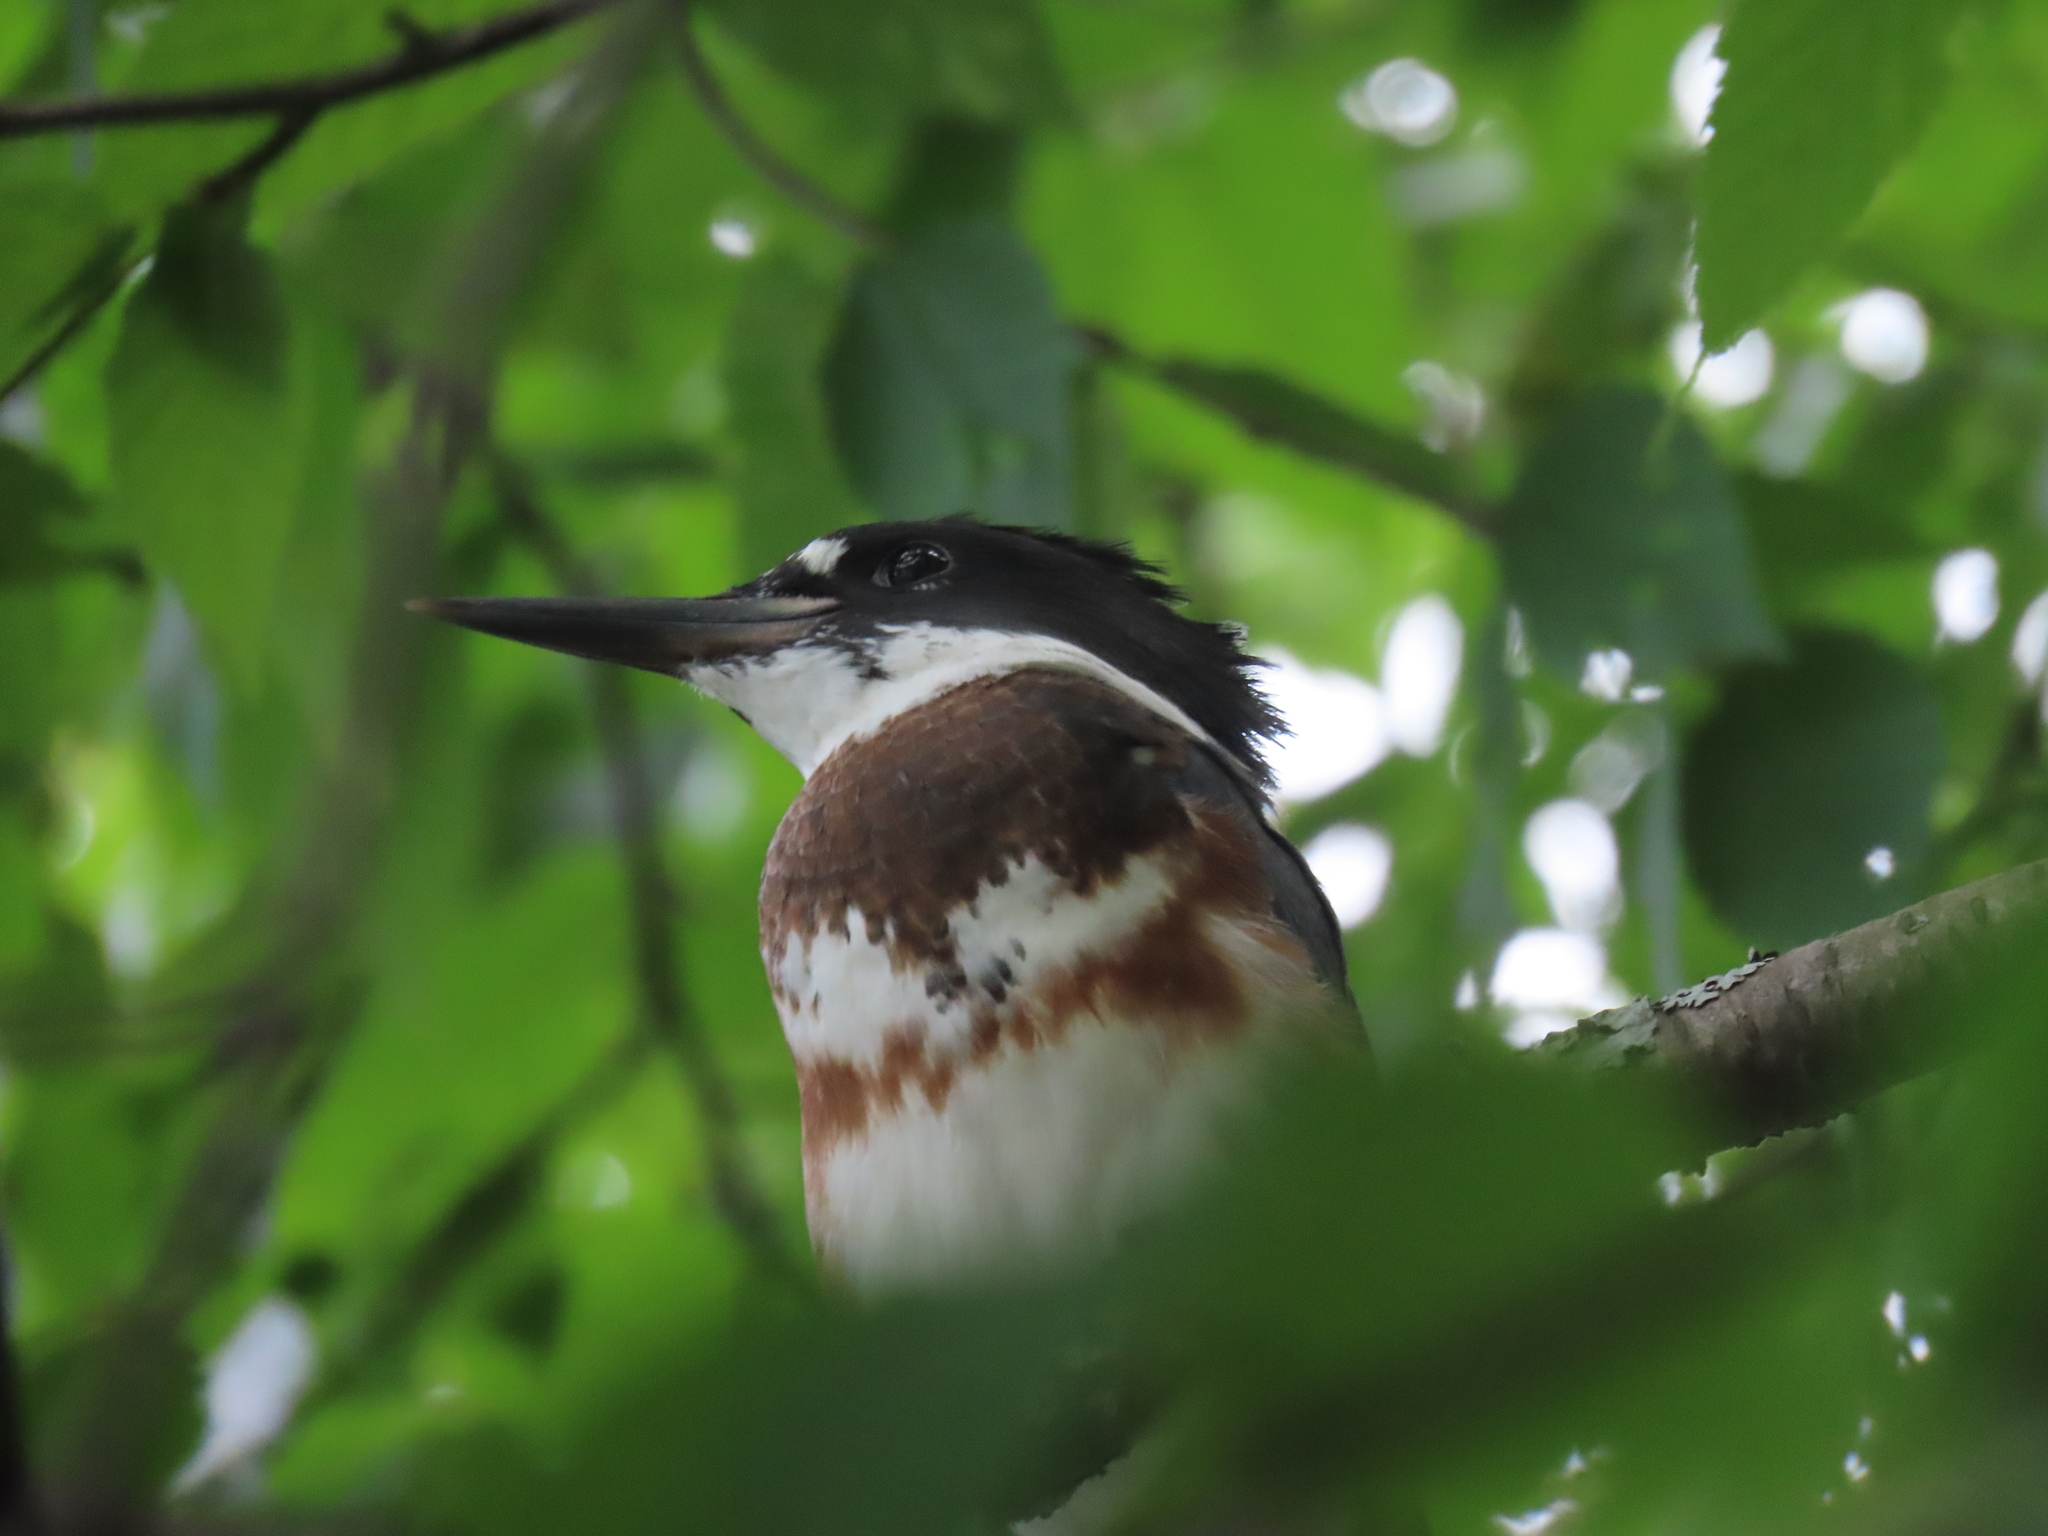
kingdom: Animalia
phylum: Chordata
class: Aves
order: Coraciiformes
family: Alcedinidae
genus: Megaceryle
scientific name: Megaceryle alcyon
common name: Belted kingfisher
